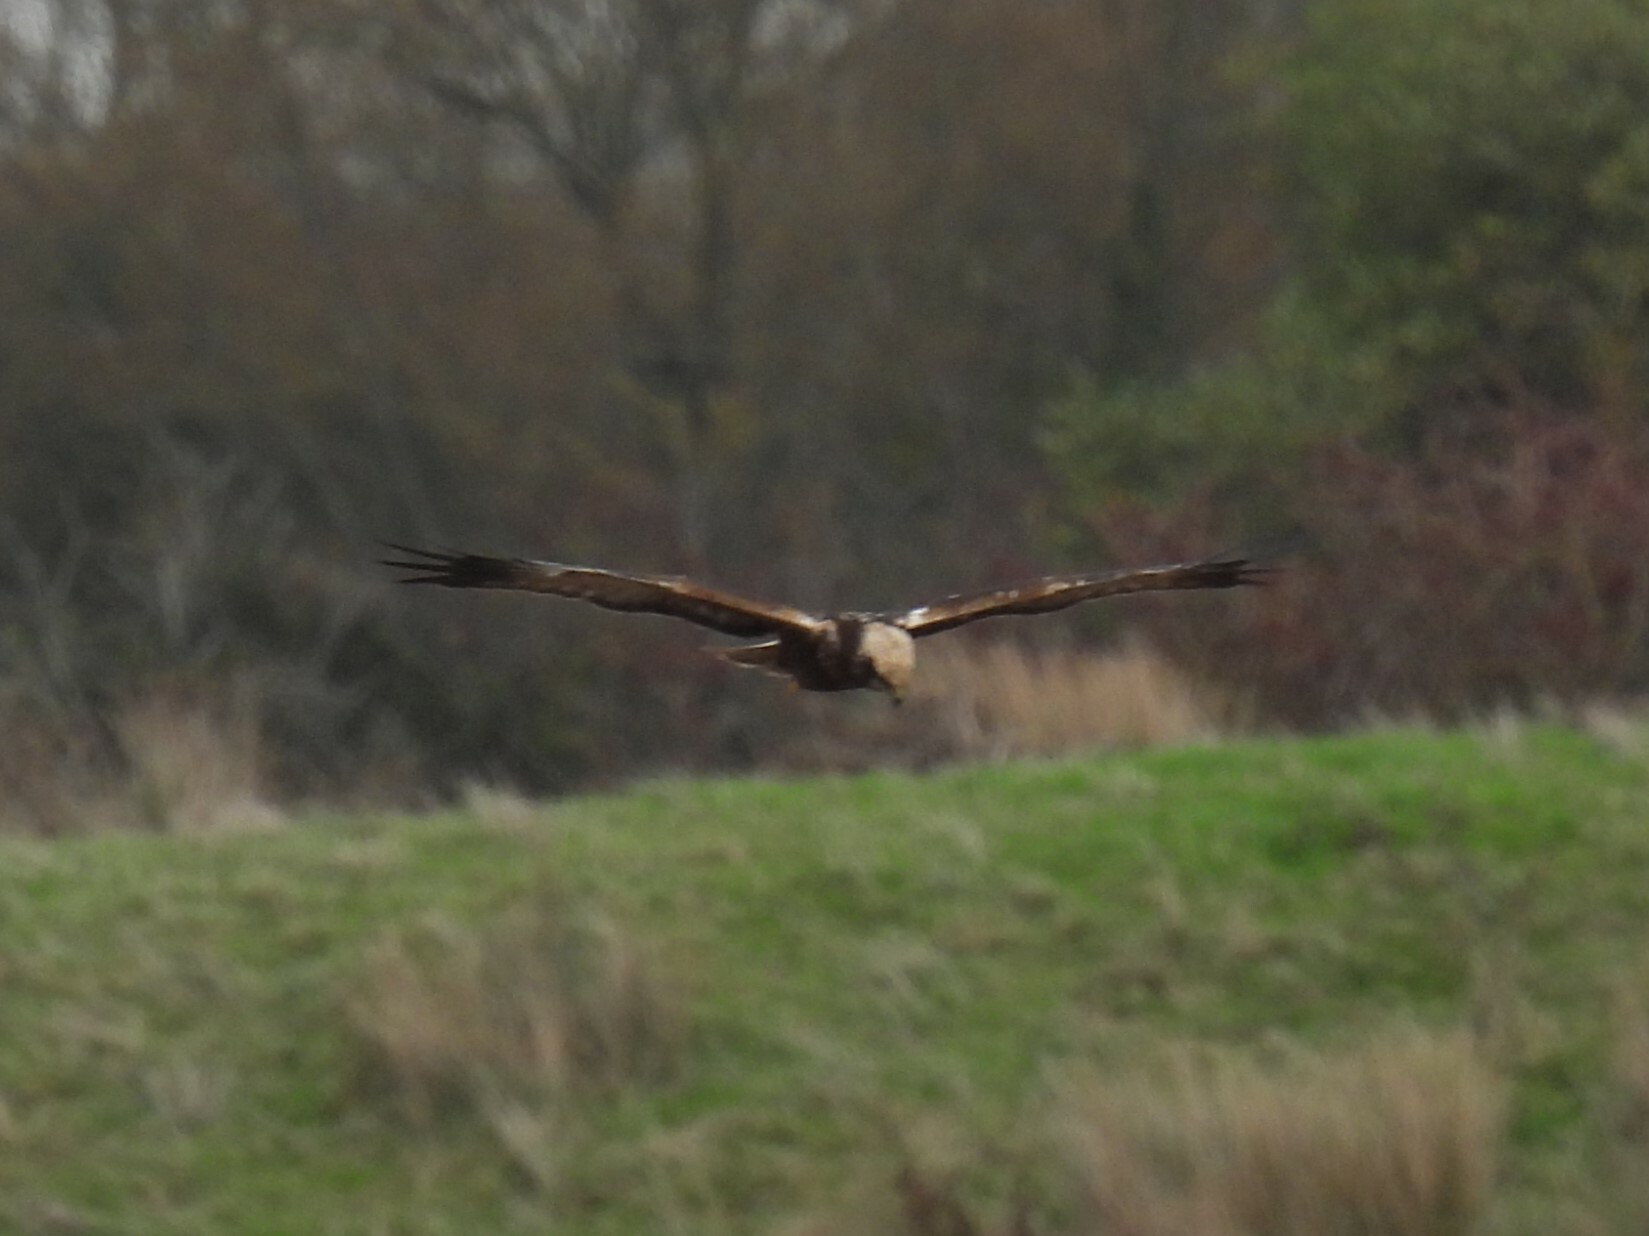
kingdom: Animalia
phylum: Chordata
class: Aves
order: Accipitriformes
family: Accipitridae
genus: Circus
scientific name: Circus aeruginosus
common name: Western marsh harrier
